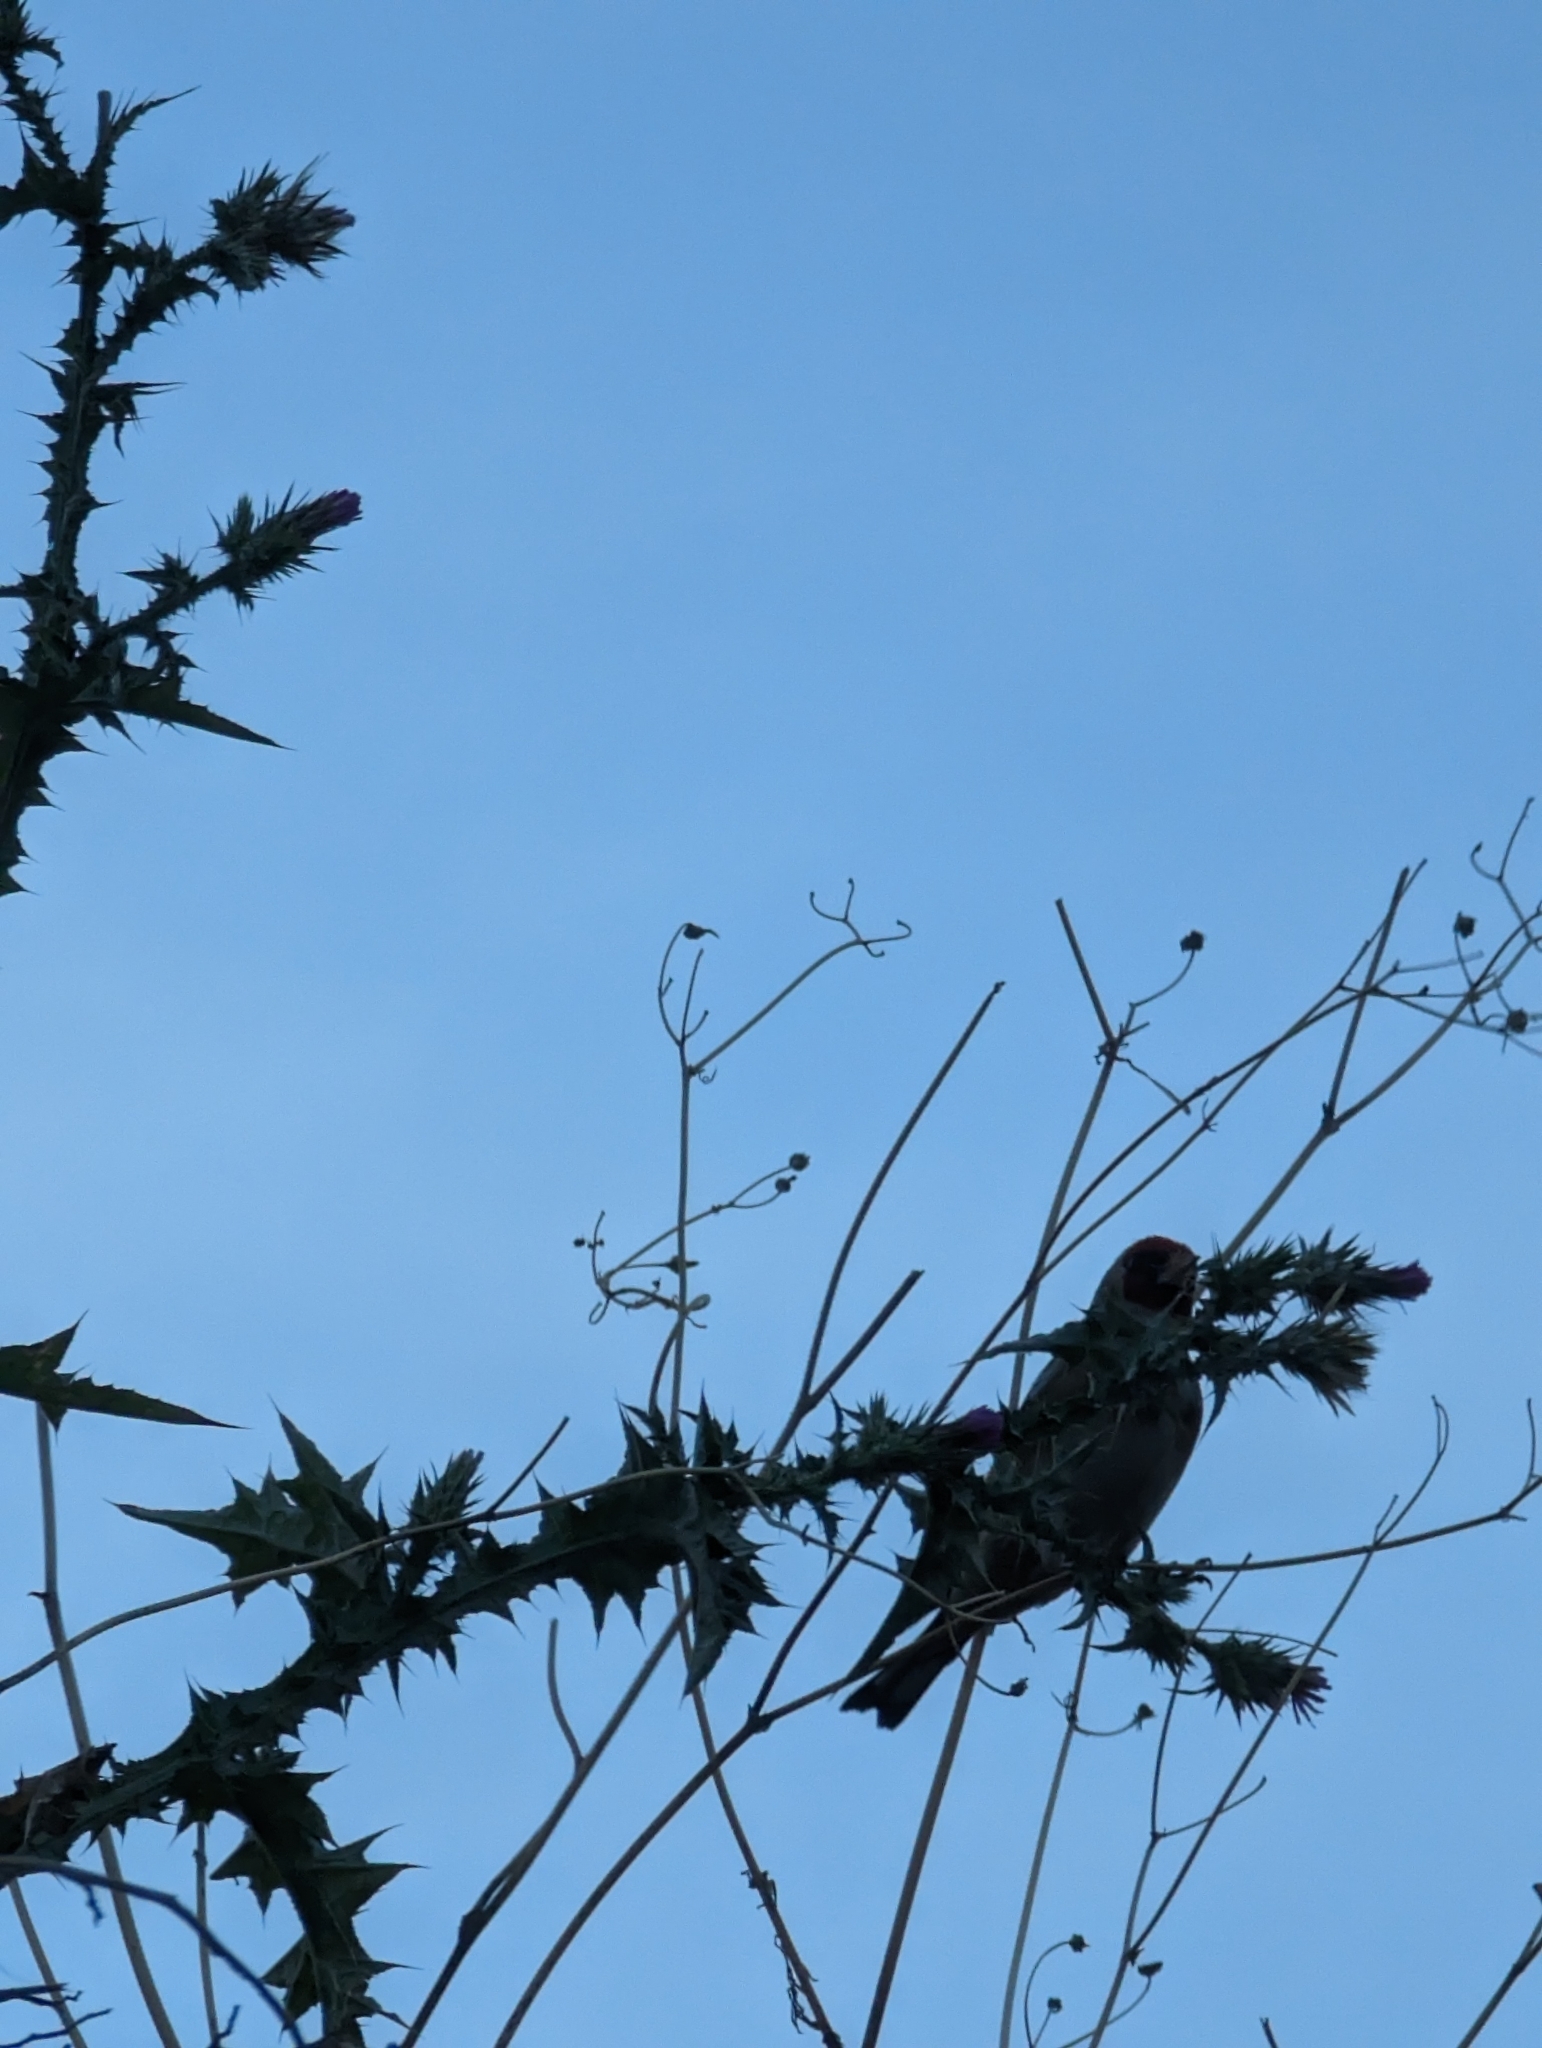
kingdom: Animalia
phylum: Chordata
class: Aves
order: Passeriformes
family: Fringillidae
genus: Carduelis
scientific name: Carduelis carduelis
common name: European goldfinch
